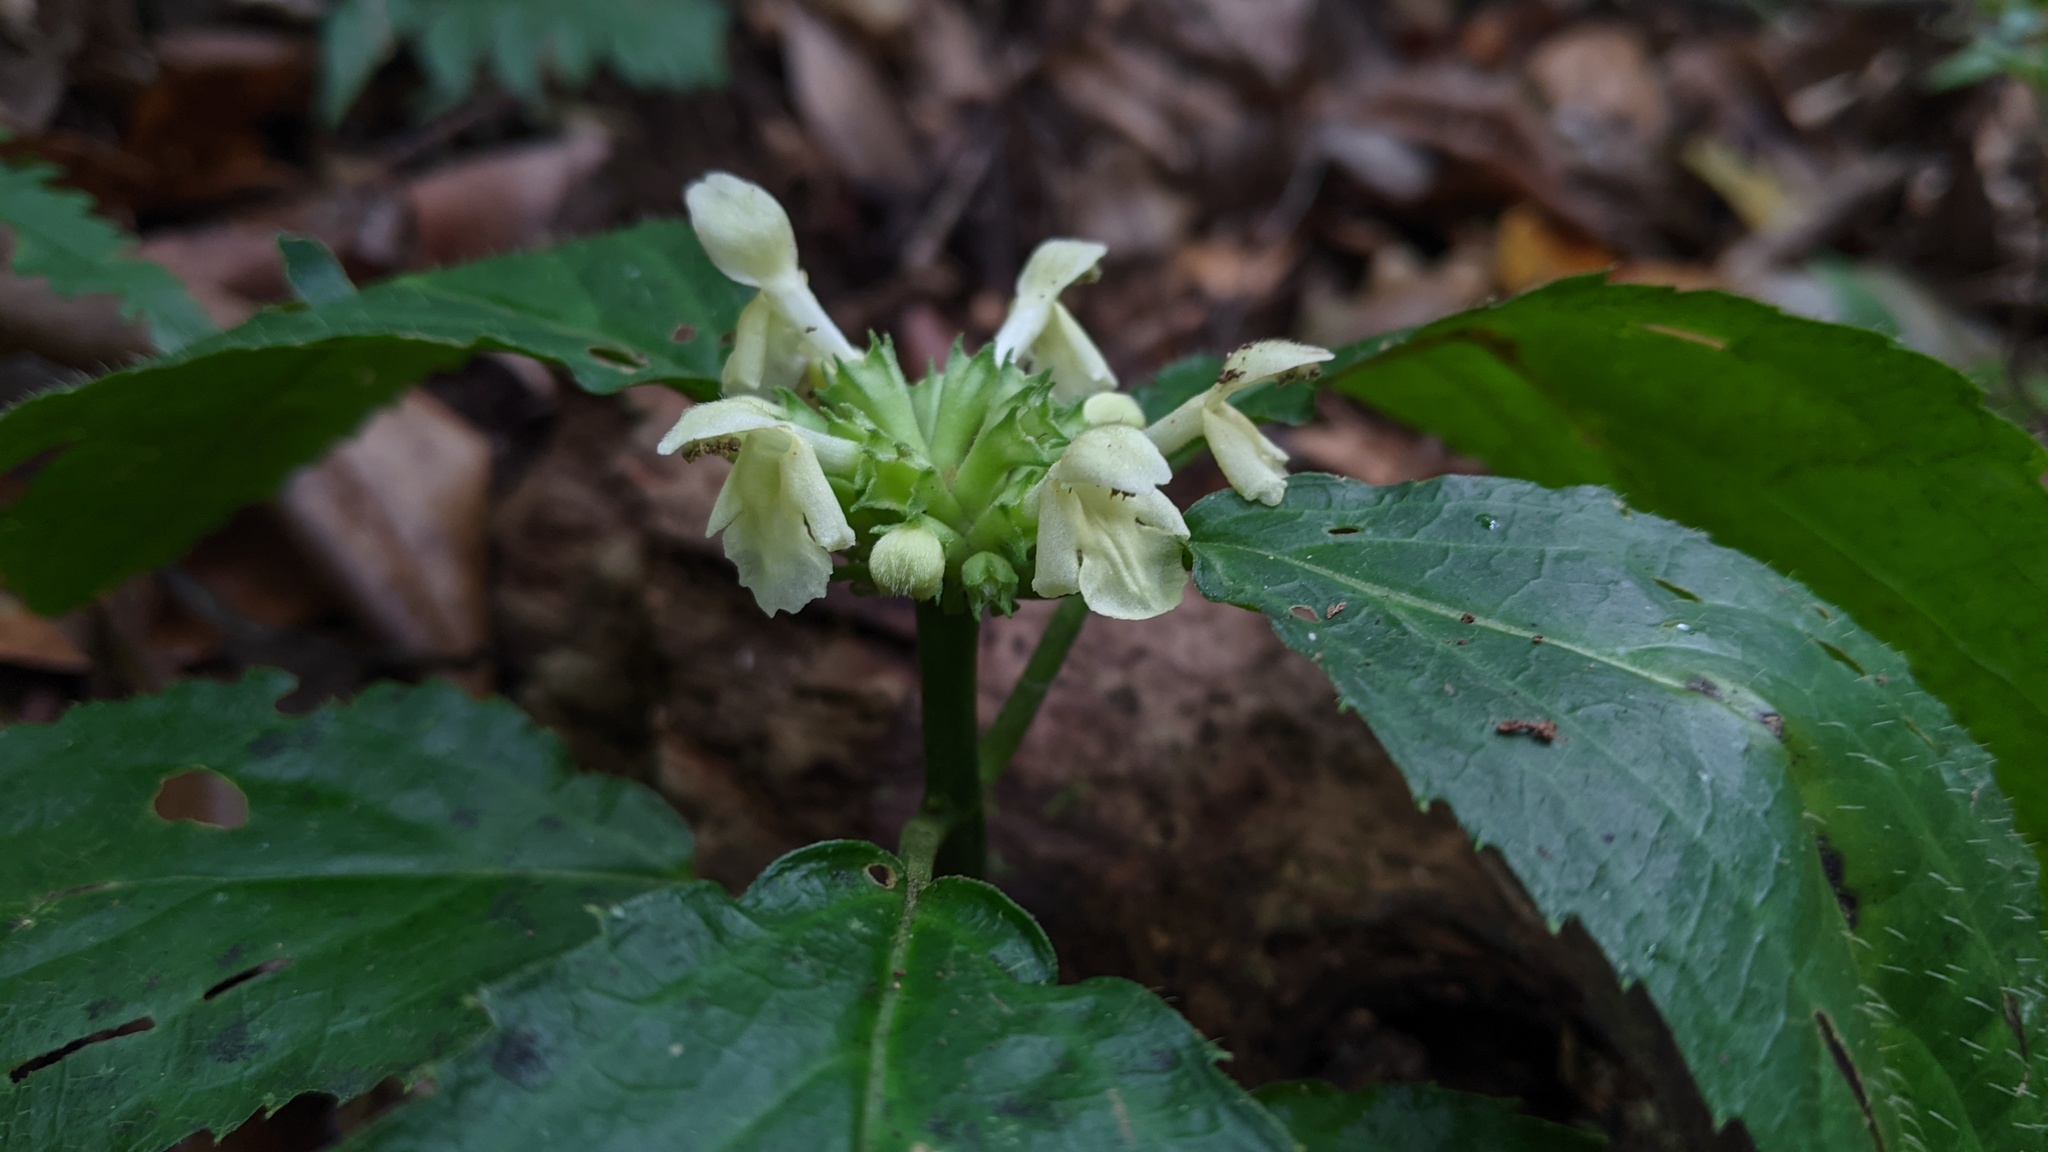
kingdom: Plantae
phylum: Tracheophyta
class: Magnoliopsida
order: Lamiales
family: Lamiaceae
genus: Paraphlomis
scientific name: Paraphlomis javanica
